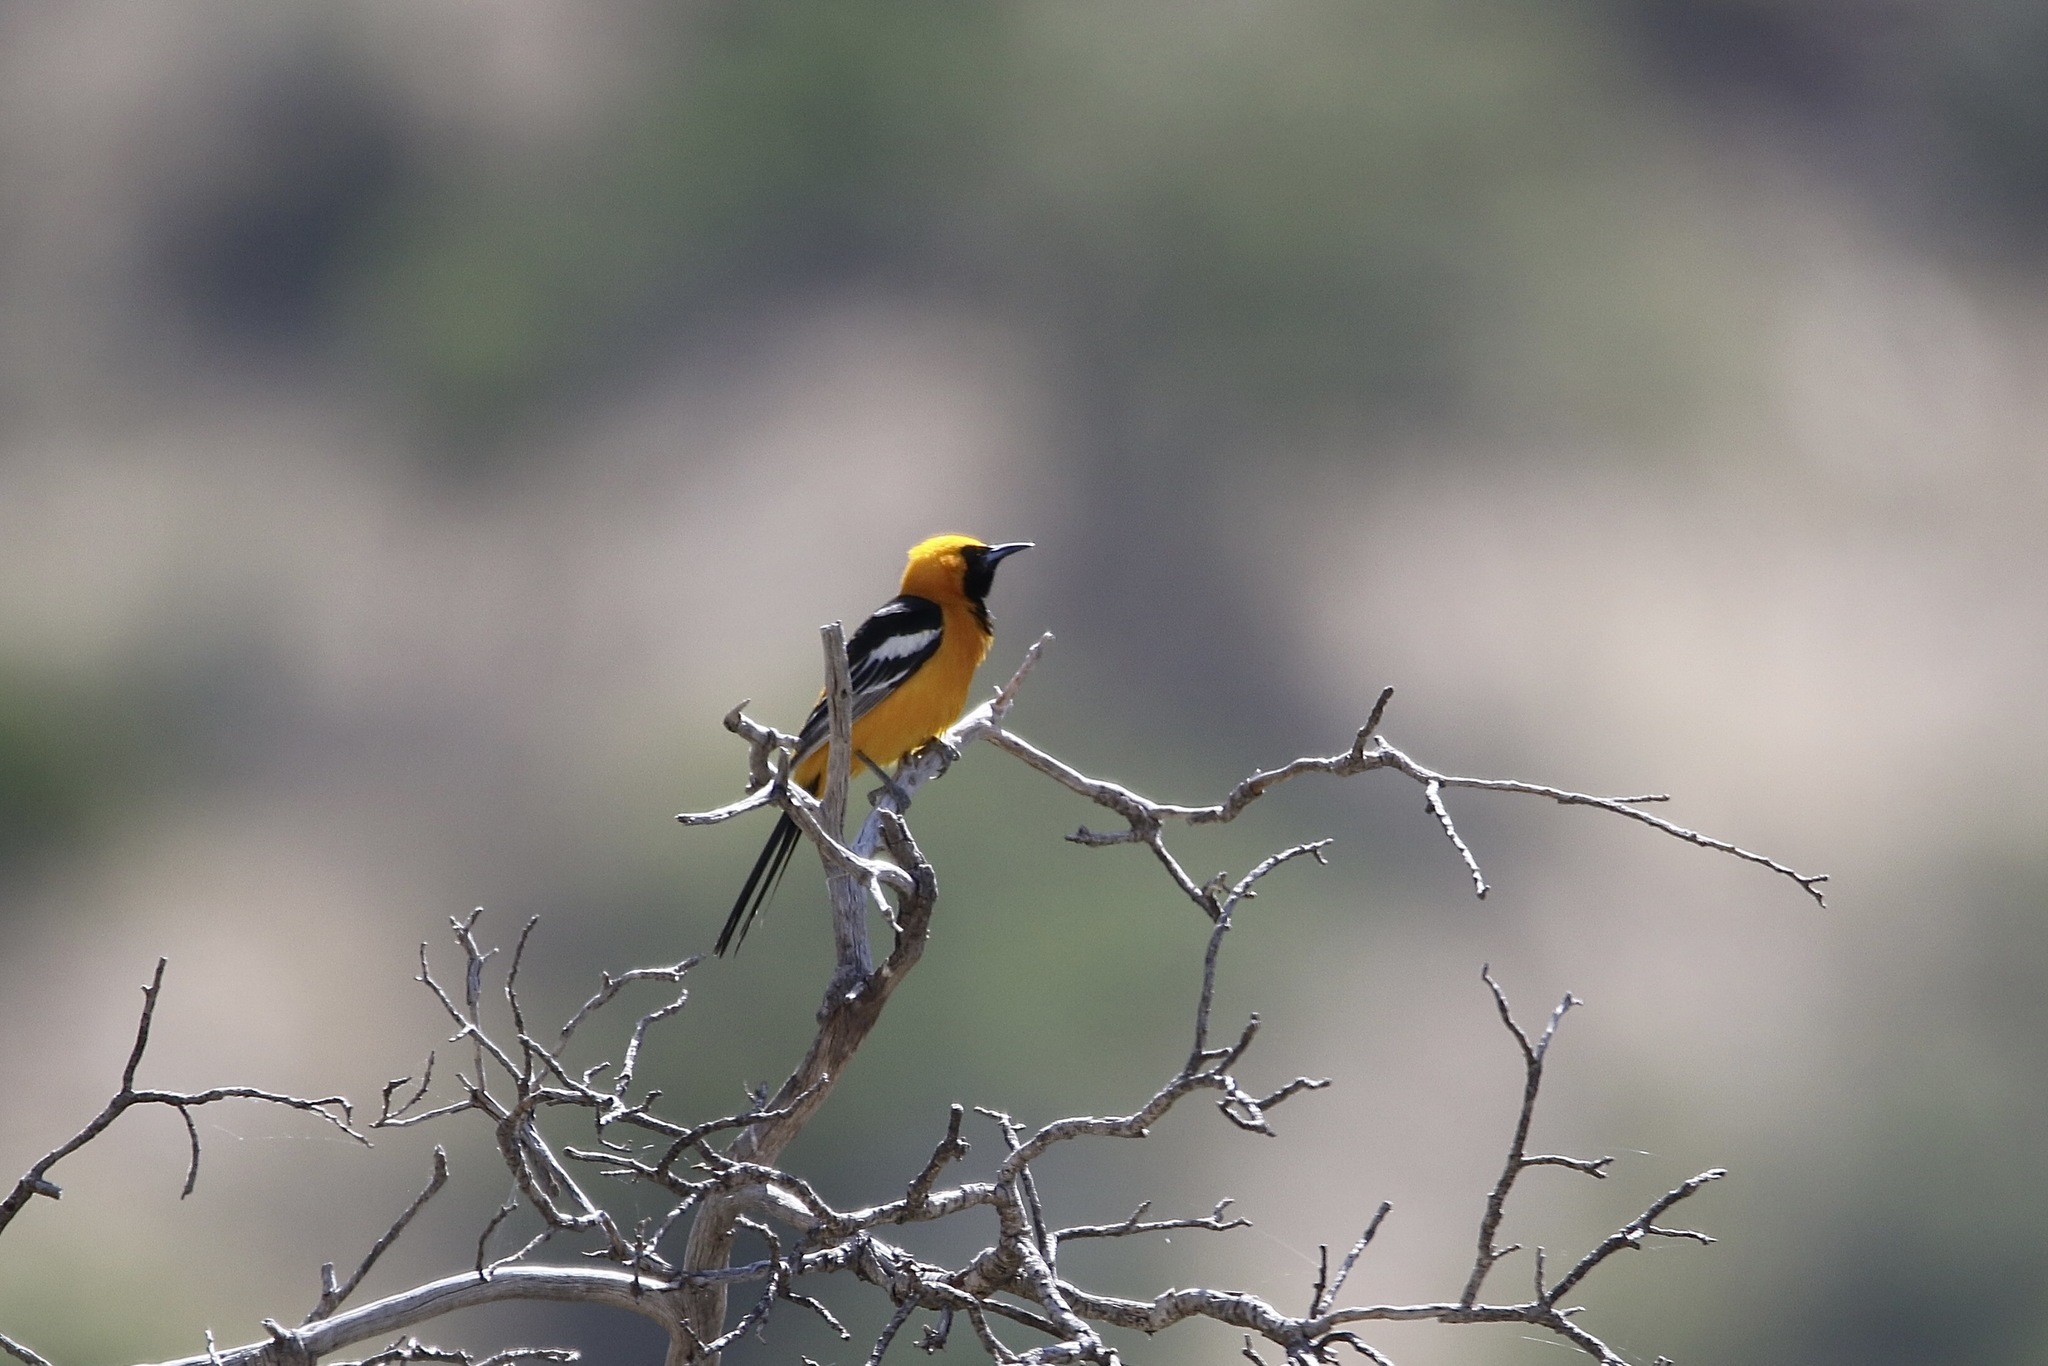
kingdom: Animalia
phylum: Chordata
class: Aves
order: Passeriformes
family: Icteridae
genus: Icterus
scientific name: Icterus cucullatus
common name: Hooded oriole
